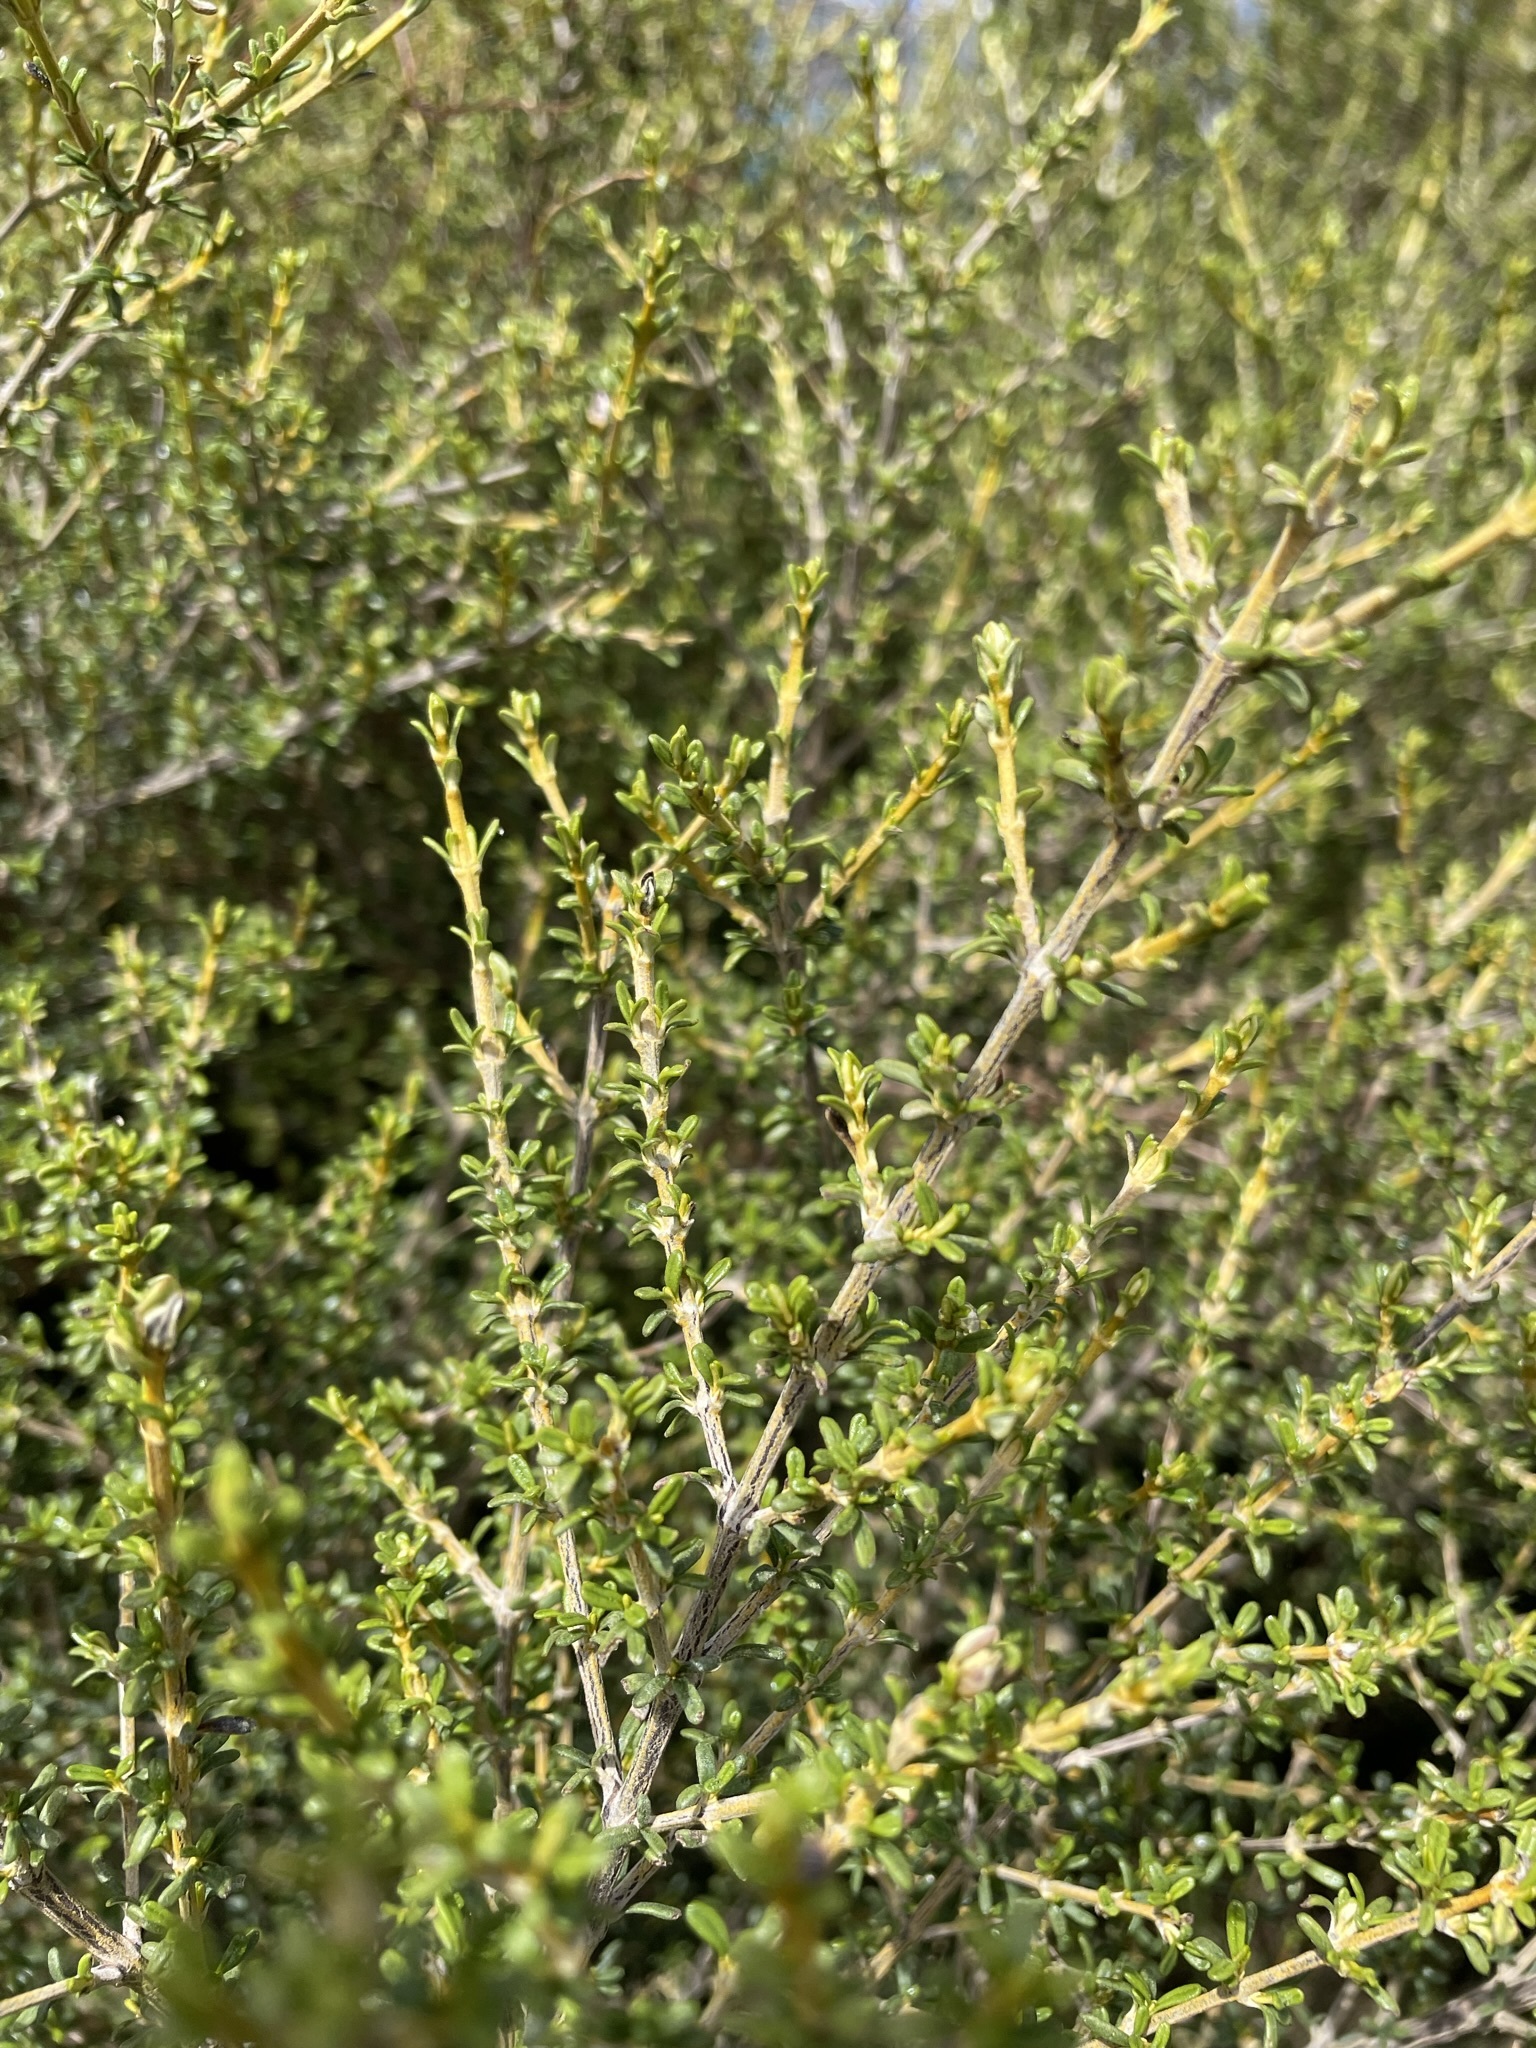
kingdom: Plantae
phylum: Tracheophyta
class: Magnoliopsida
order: Asterales
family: Asteraceae
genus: Olearia
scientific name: Olearia solandri
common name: Coastal daisybush
